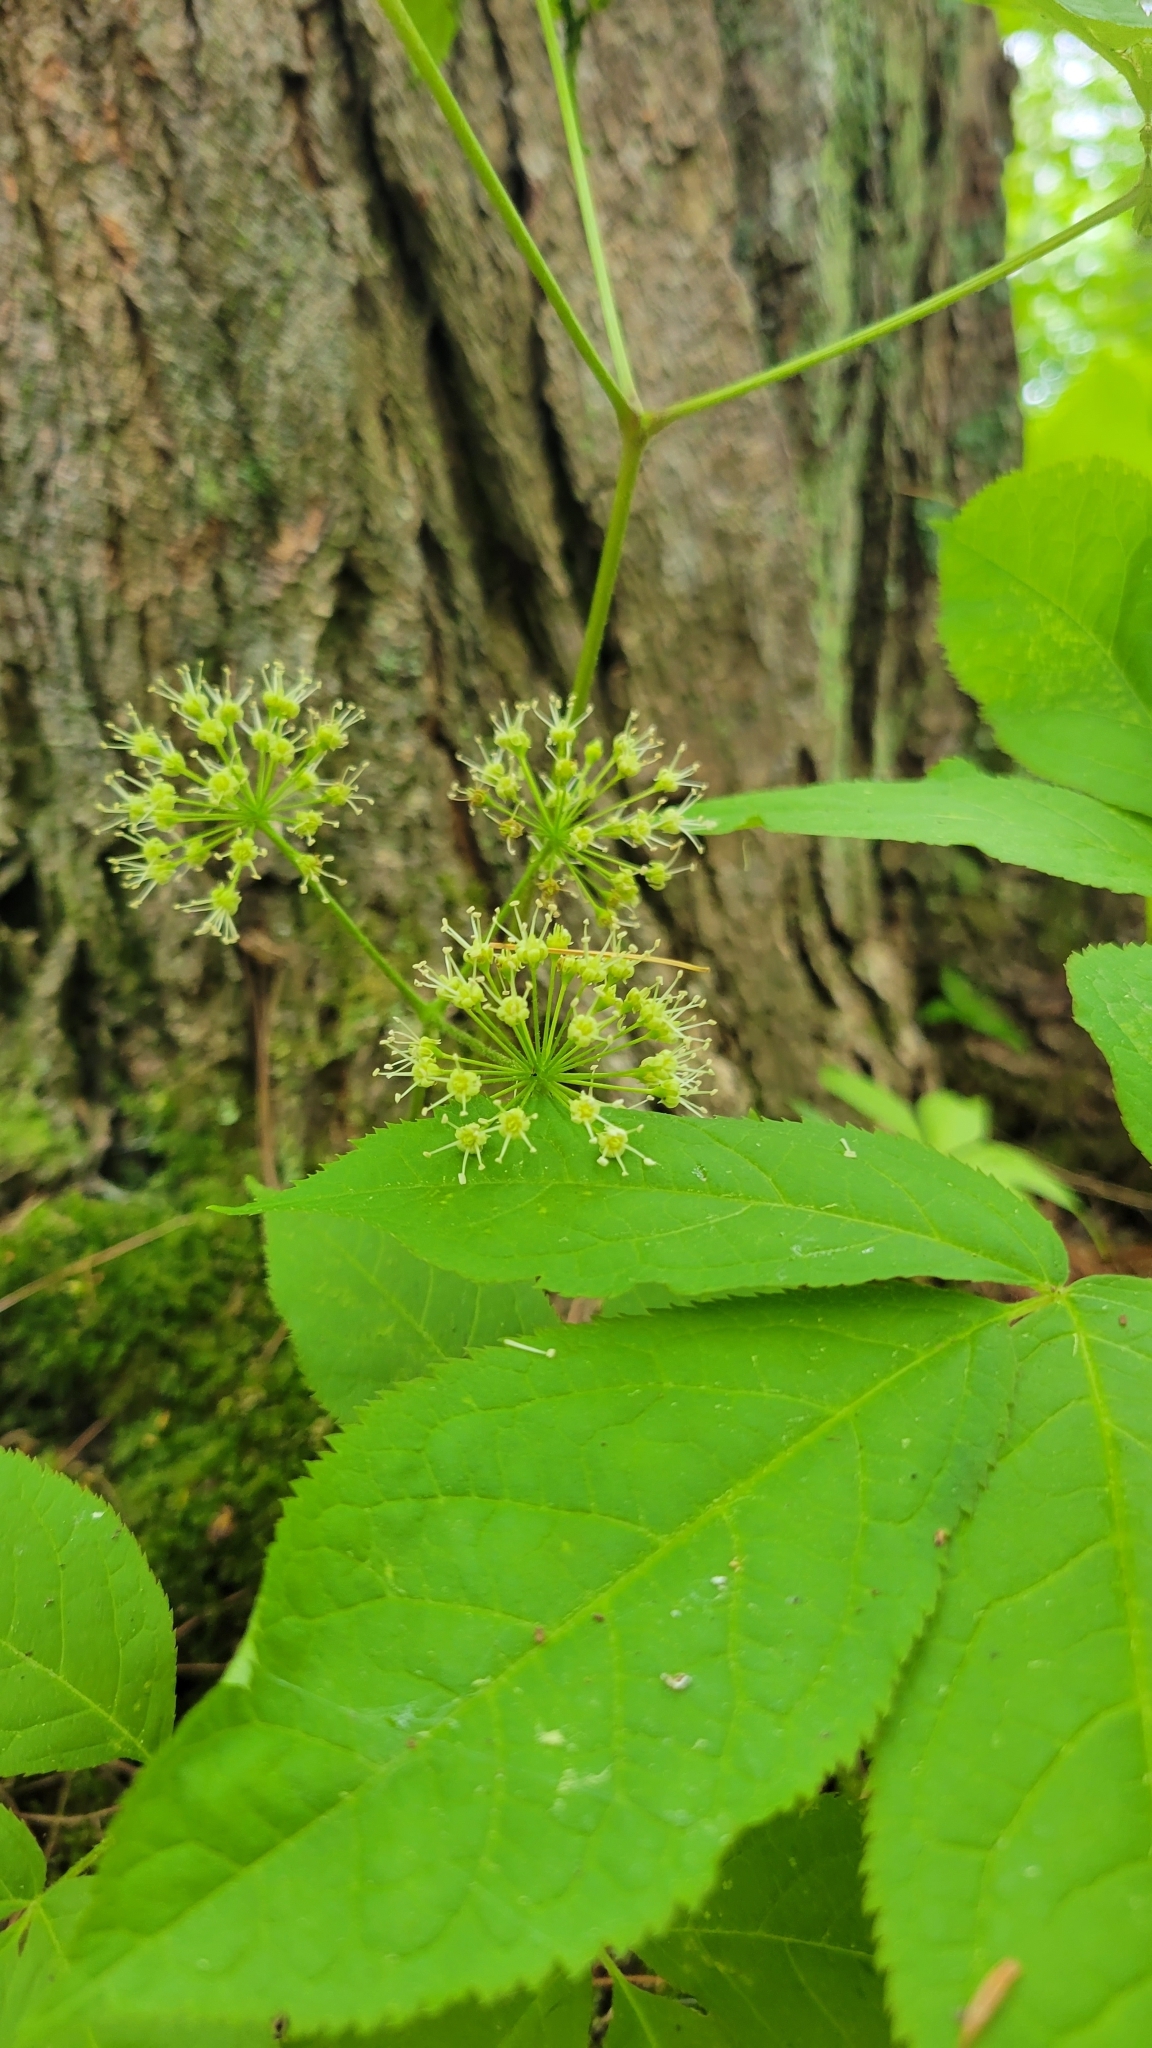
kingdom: Plantae
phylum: Tracheophyta
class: Magnoliopsida
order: Apiales
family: Araliaceae
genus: Aralia
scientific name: Aralia nudicaulis
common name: Wild sarsaparilla
